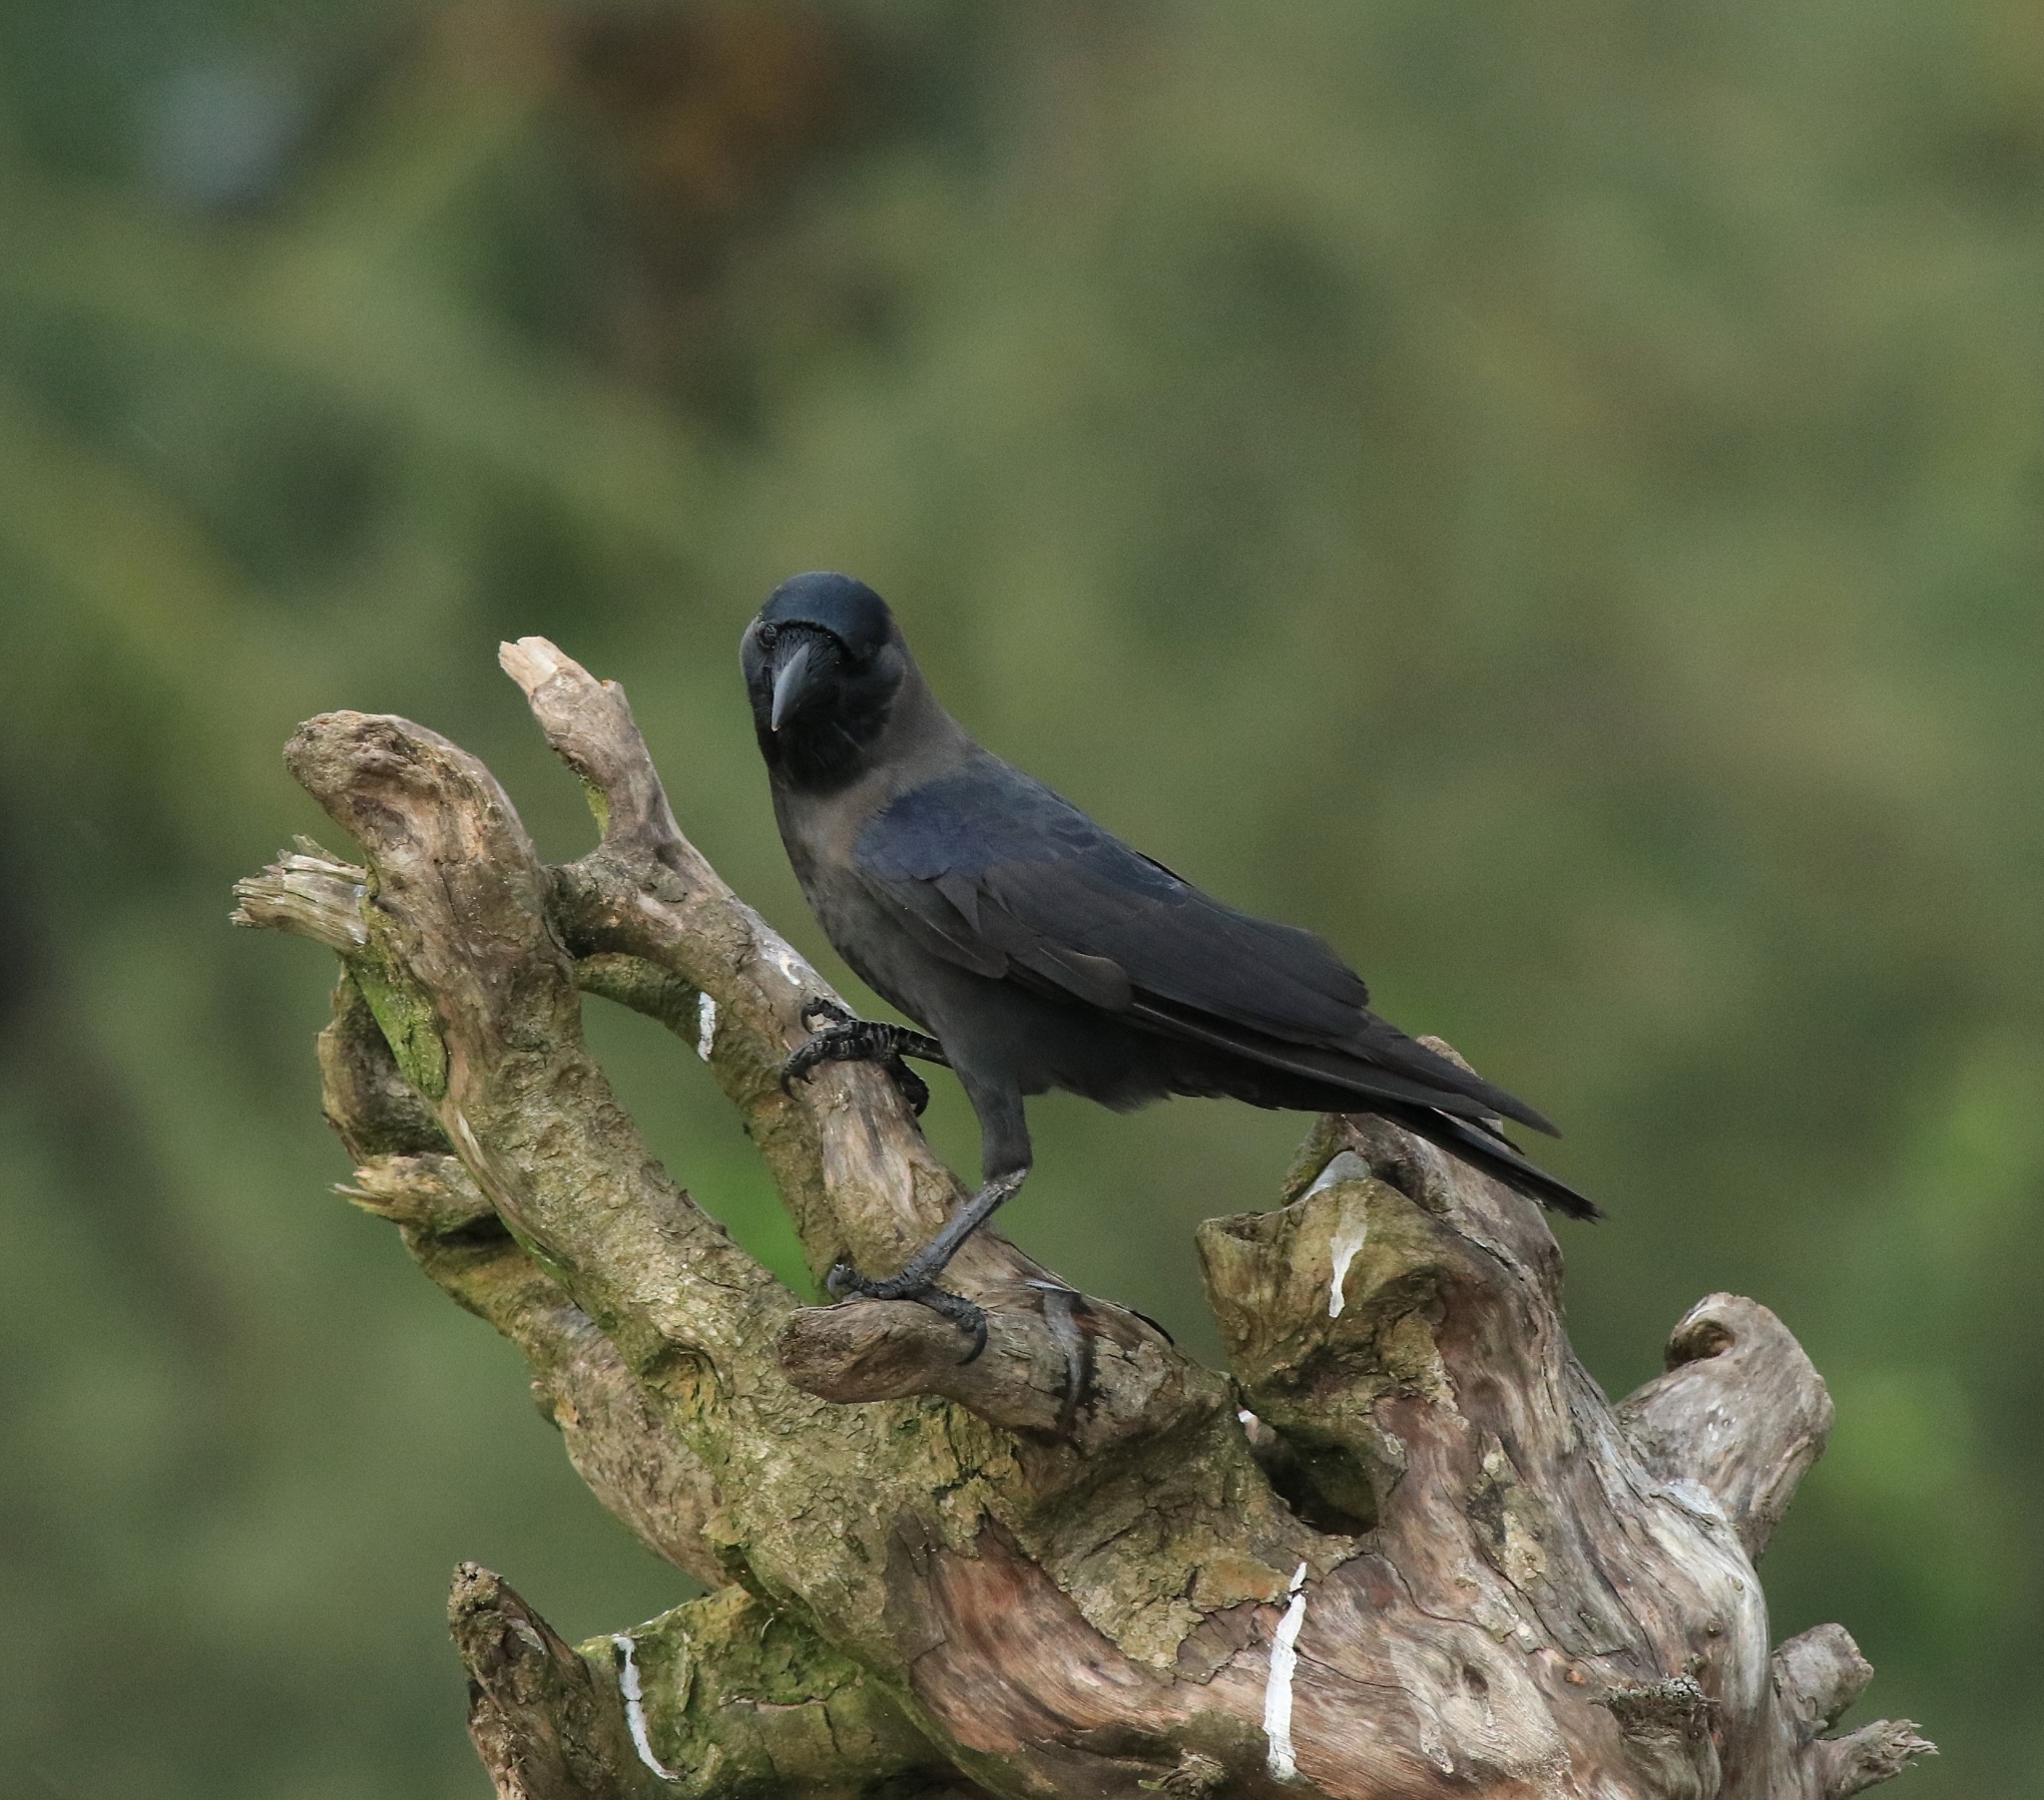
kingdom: Animalia
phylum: Chordata
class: Aves
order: Passeriformes
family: Corvidae
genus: Corvus
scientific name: Corvus splendens
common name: House crow
